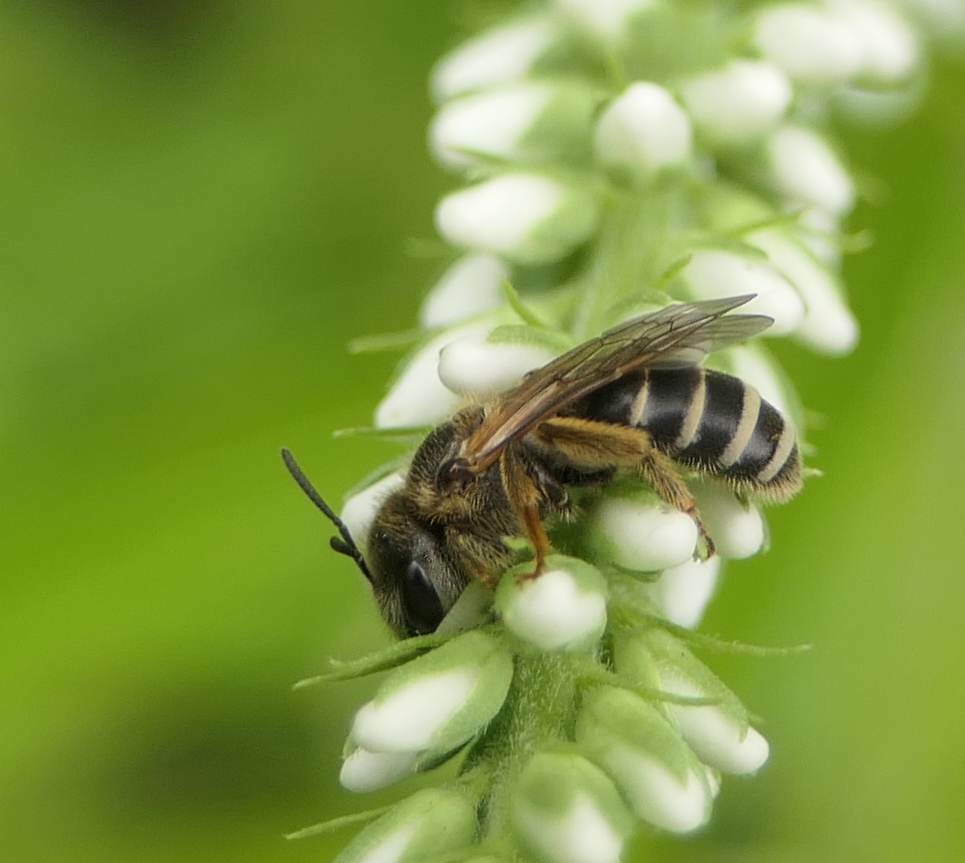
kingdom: Animalia
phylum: Arthropoda
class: Insecta
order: Hymenoptera
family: Halictidae
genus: Halictus
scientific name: Halictus ligatus
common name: Ligated furrow bee
